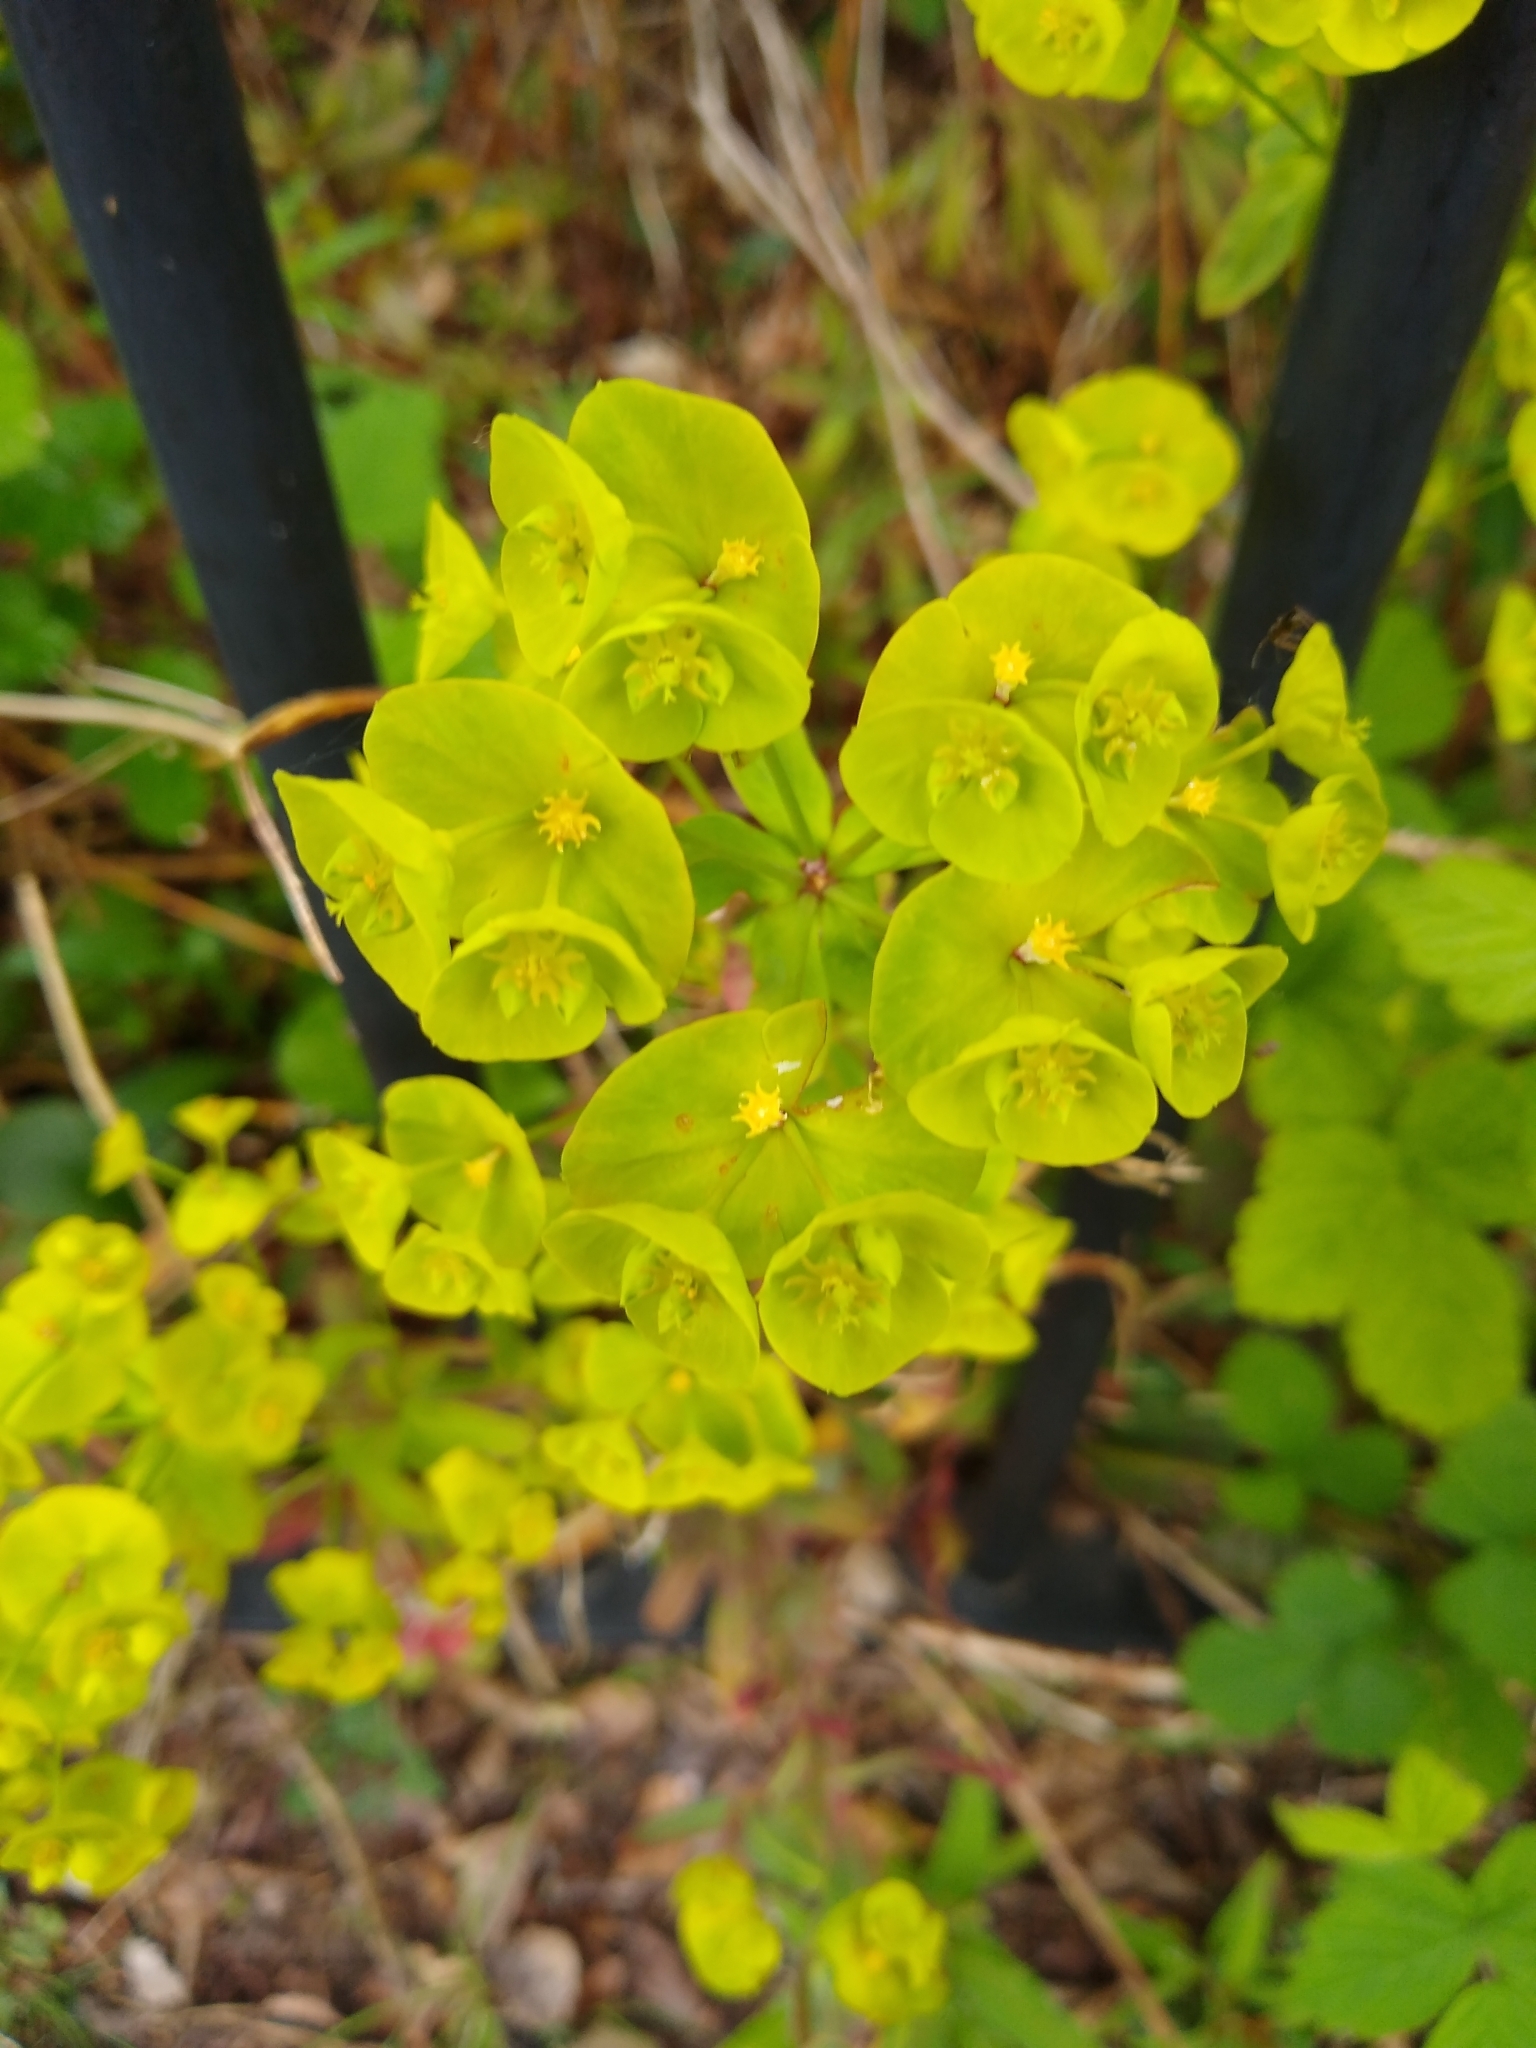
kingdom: Plantae
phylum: Tracheophyta
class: Magnoliopsida
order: Malpighiales
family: Euphorbiaceae
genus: Euphorbia
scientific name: Euphorbia amygdaloides
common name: Wood spurge
